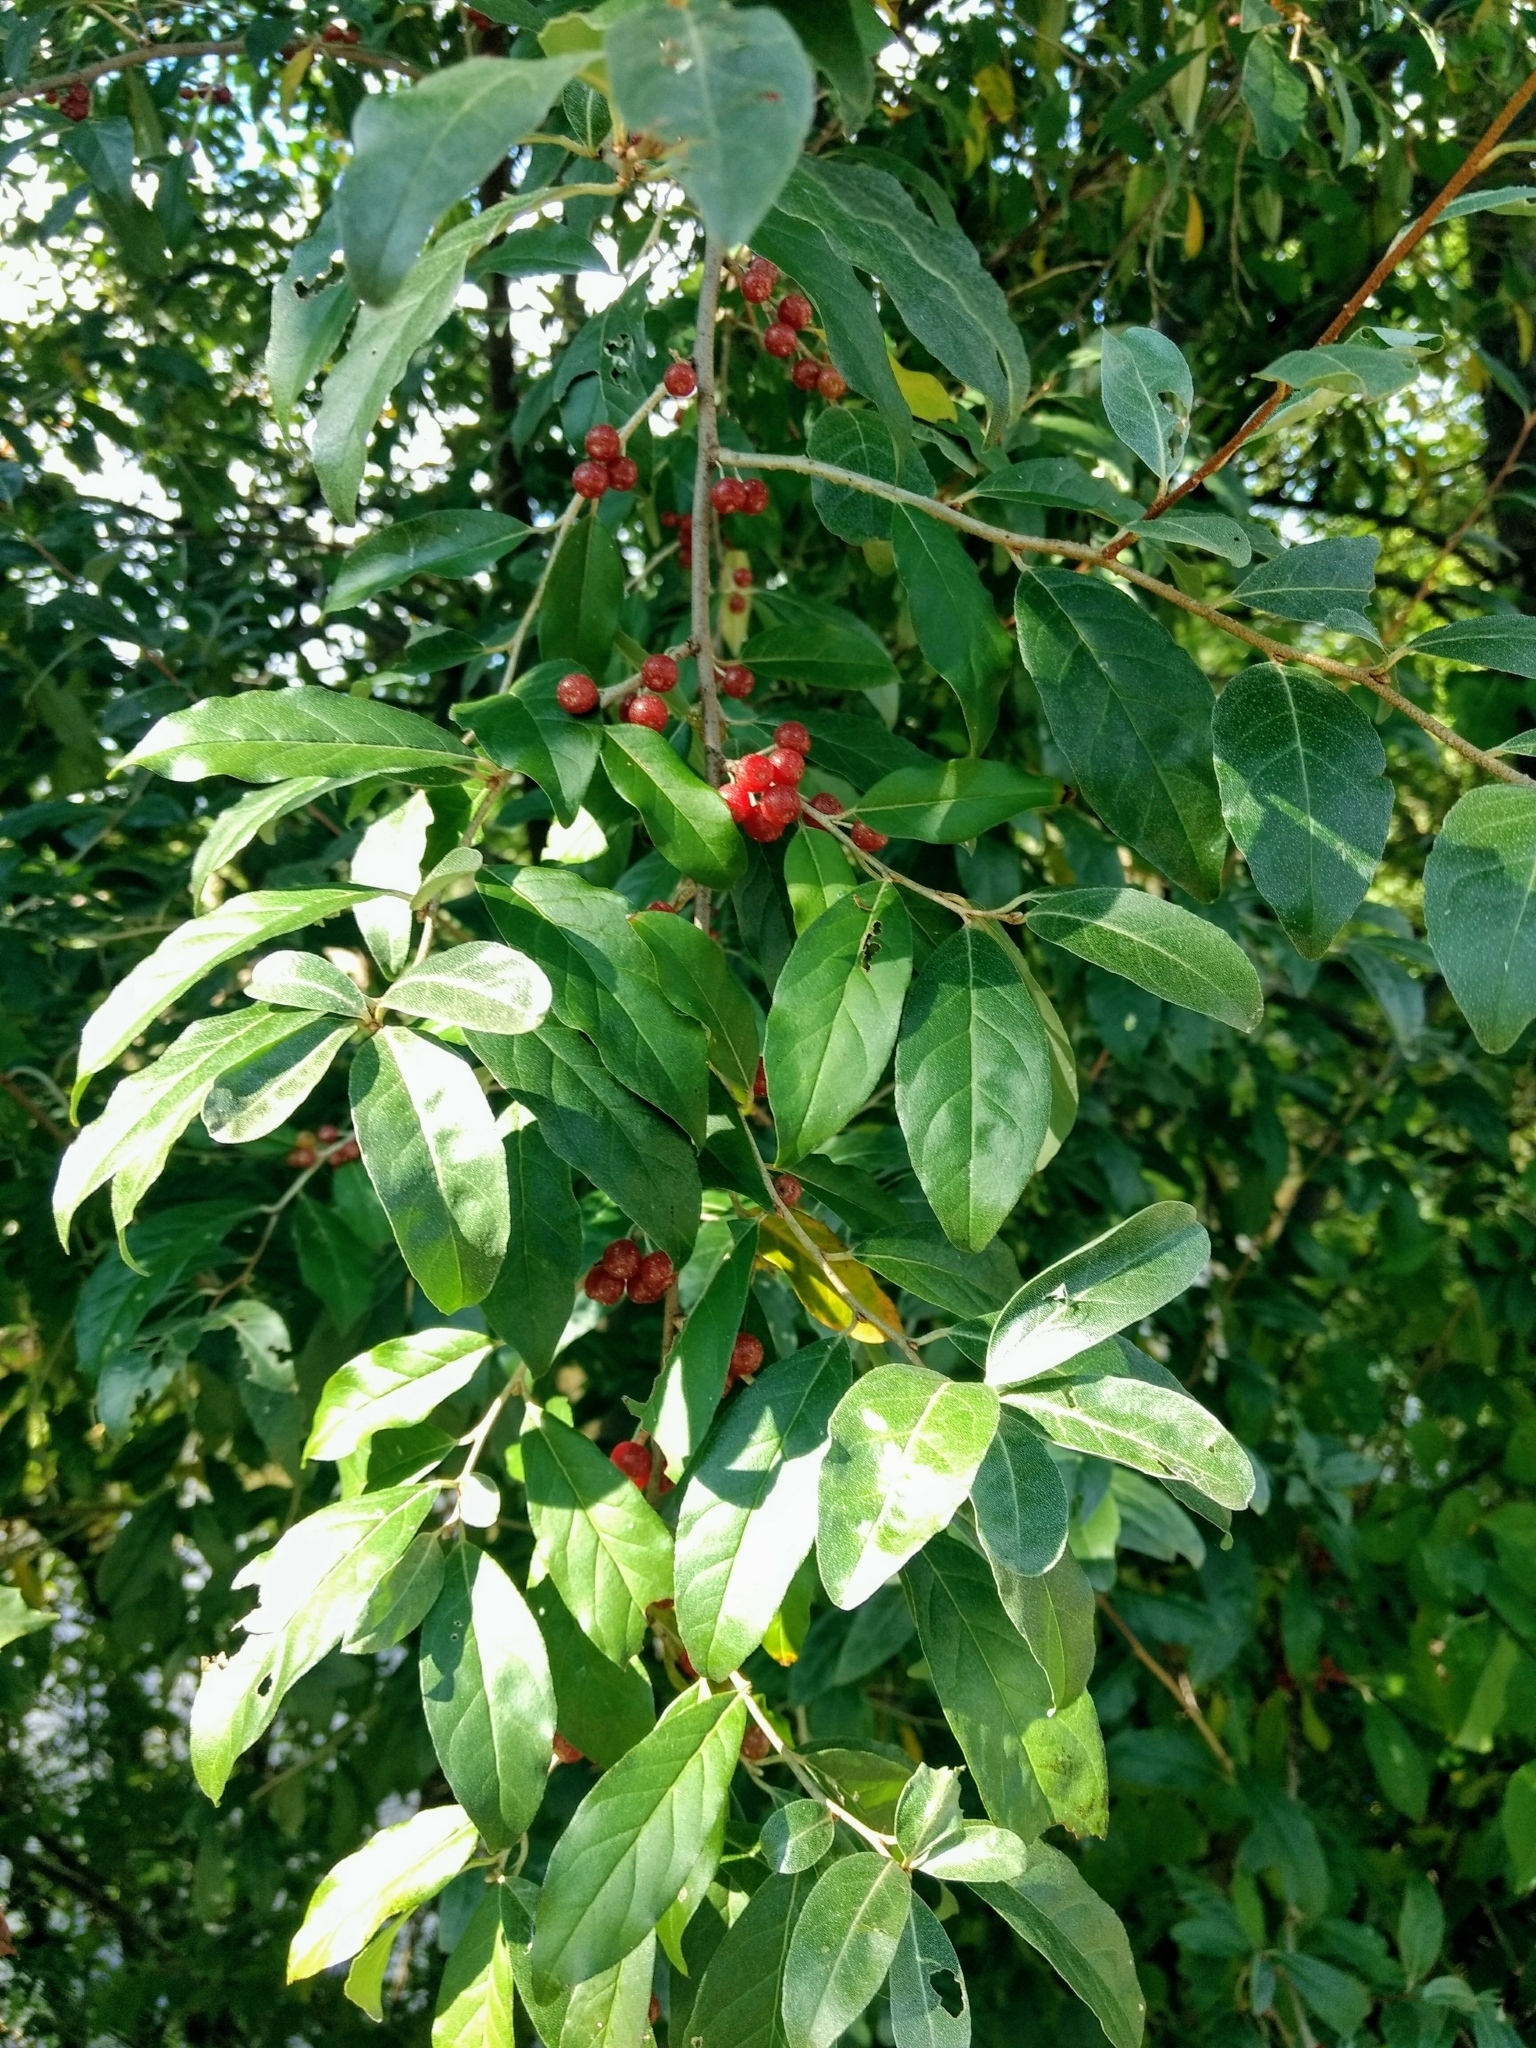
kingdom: Plantae
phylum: Tracheophyta
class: Magnoliopsida
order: Rosales
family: Elaeagnaceae
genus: Elaeagnus
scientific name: Elaeagnus umbellata
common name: Autumn olive
